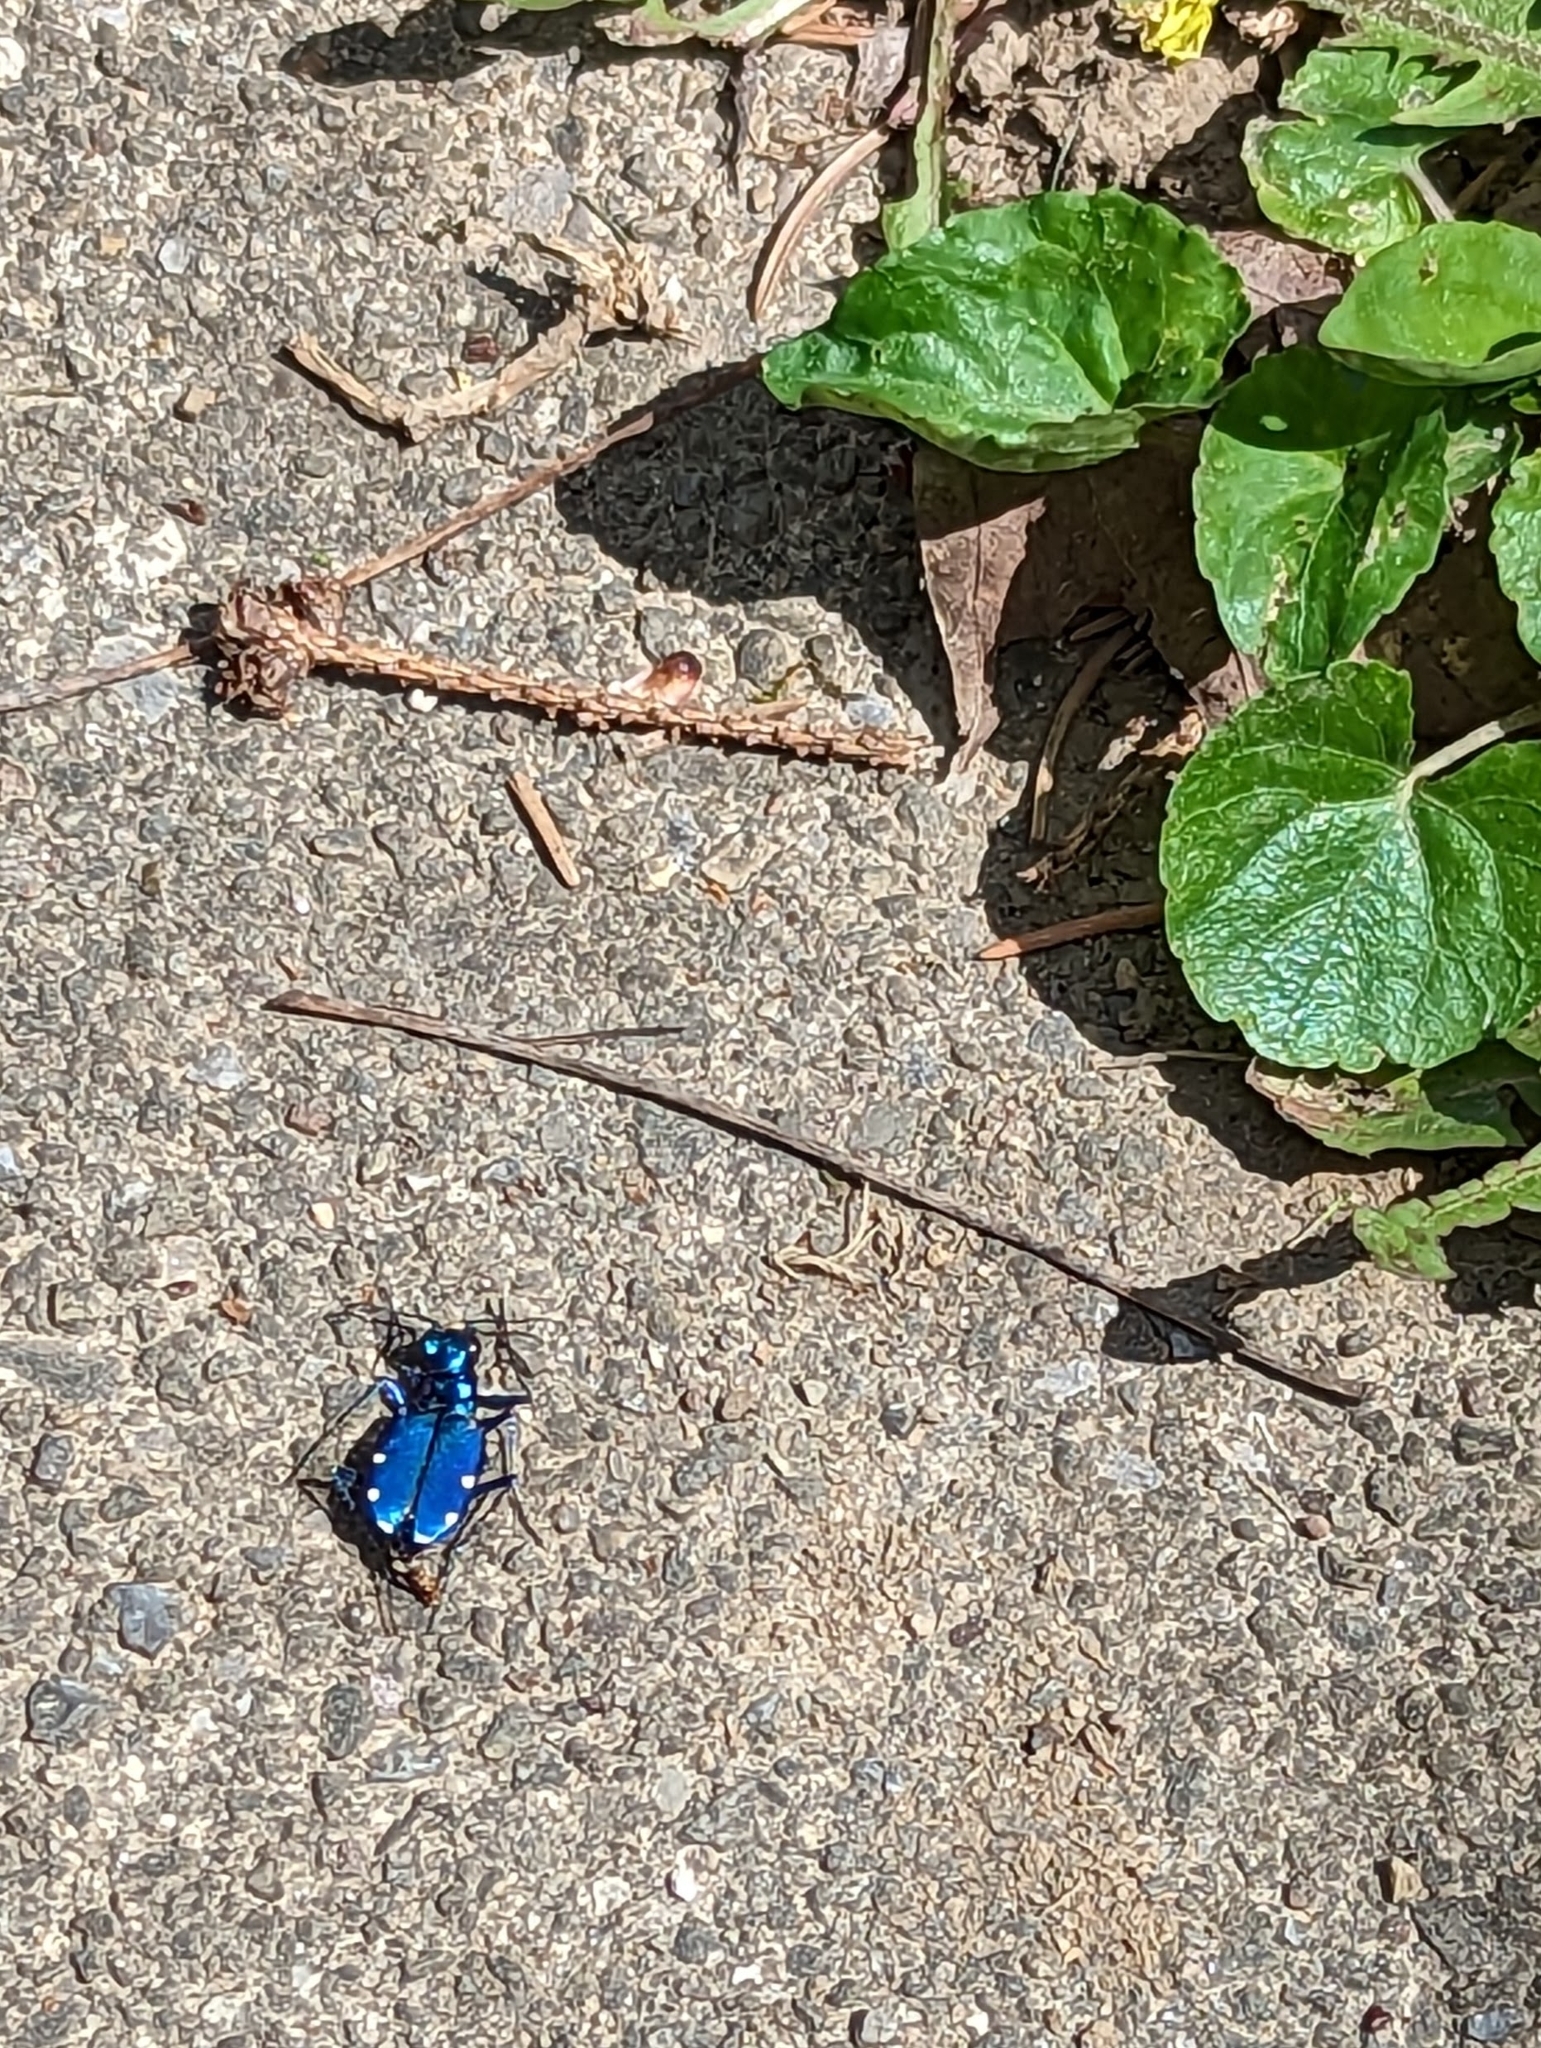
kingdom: Animalia
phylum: Arthropoda
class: Insecta
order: Coleoptera
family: Carabidae
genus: Cicindela
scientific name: Cicindela sexguttata
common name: Six-spotted tiger beetle
